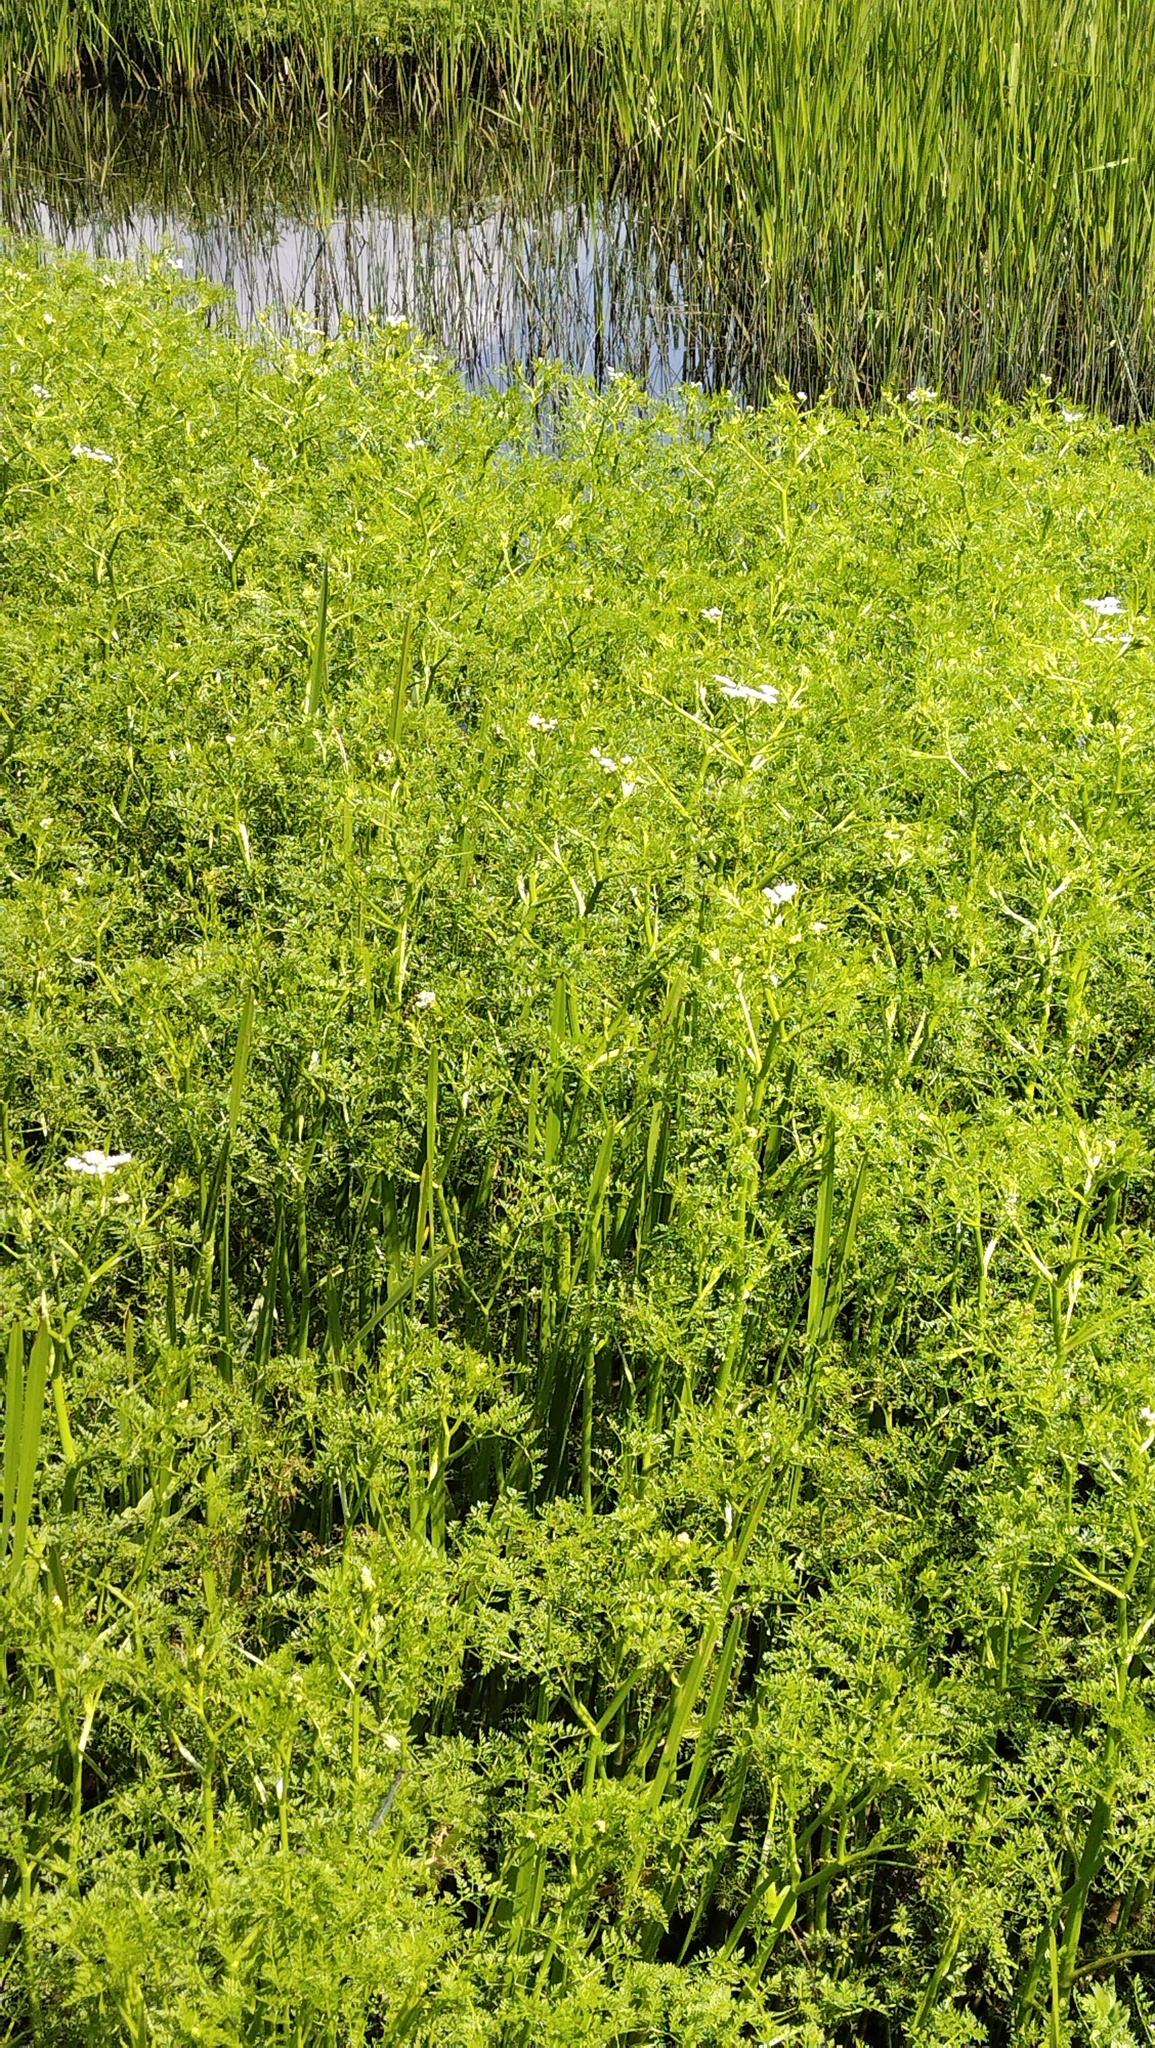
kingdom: Plantae
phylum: Tracheophyta
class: Magnoliopsida
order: Apiales
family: Apiaceae
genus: Oenanthe
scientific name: Oenanthe aquatica
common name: Fine-leaved water-dropwort
